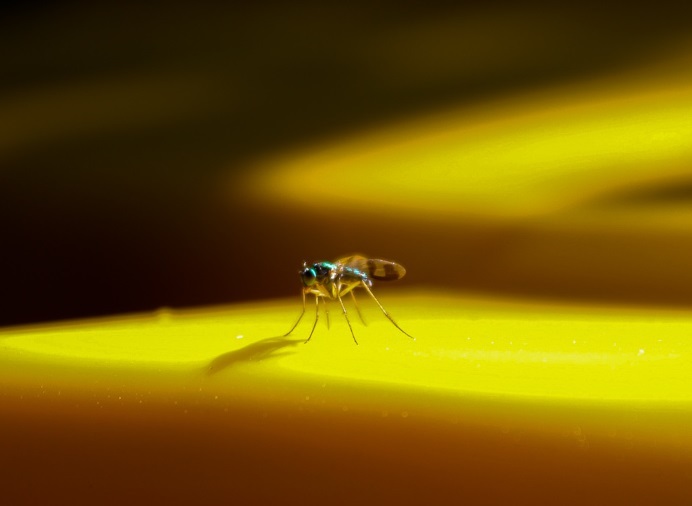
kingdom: Animalia
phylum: Arthropoda
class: Insecta
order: Diptera
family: Dolichopodidae
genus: Austrosciapus
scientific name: Austrosciapus proximus
